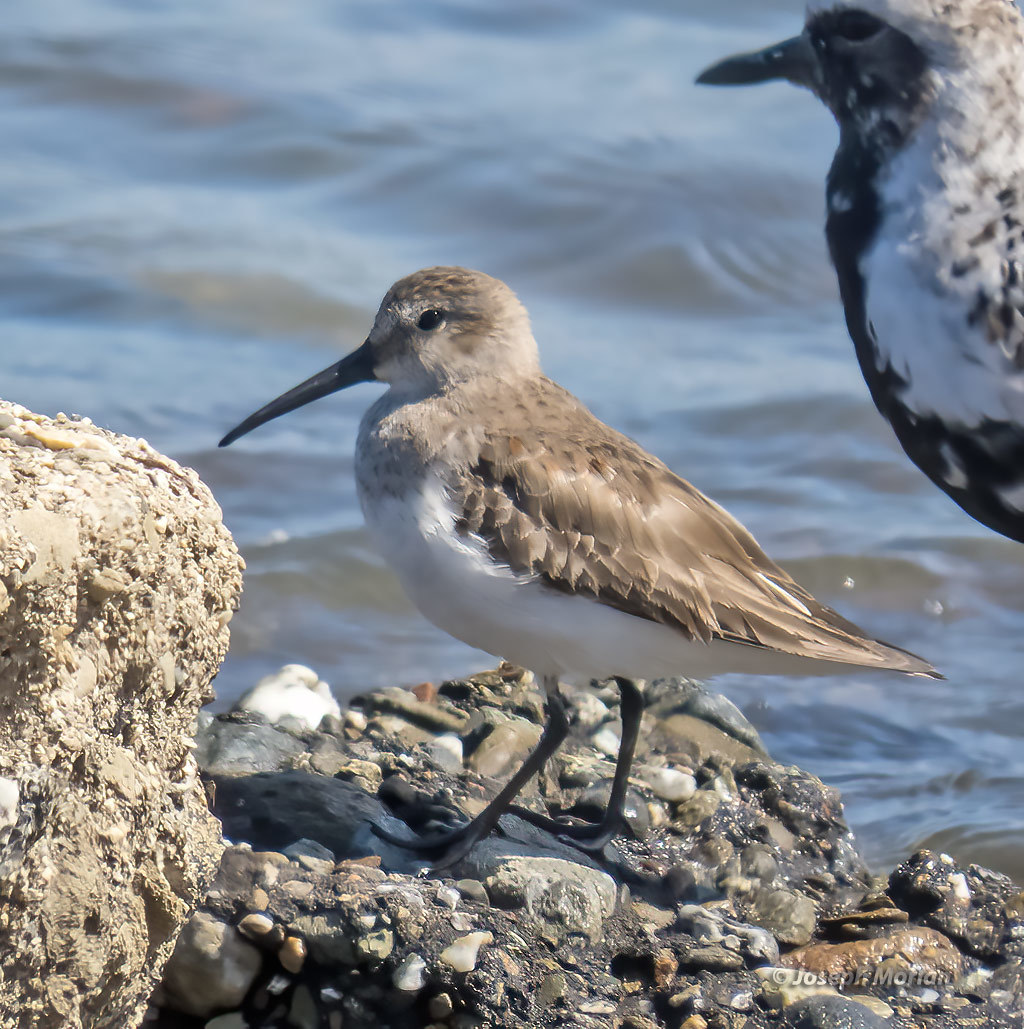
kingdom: Animalia
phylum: Chordata
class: Aves
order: Charadriiformes
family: Scolopacidae
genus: Calidris
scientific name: Calidris alpina
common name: Dunlin
